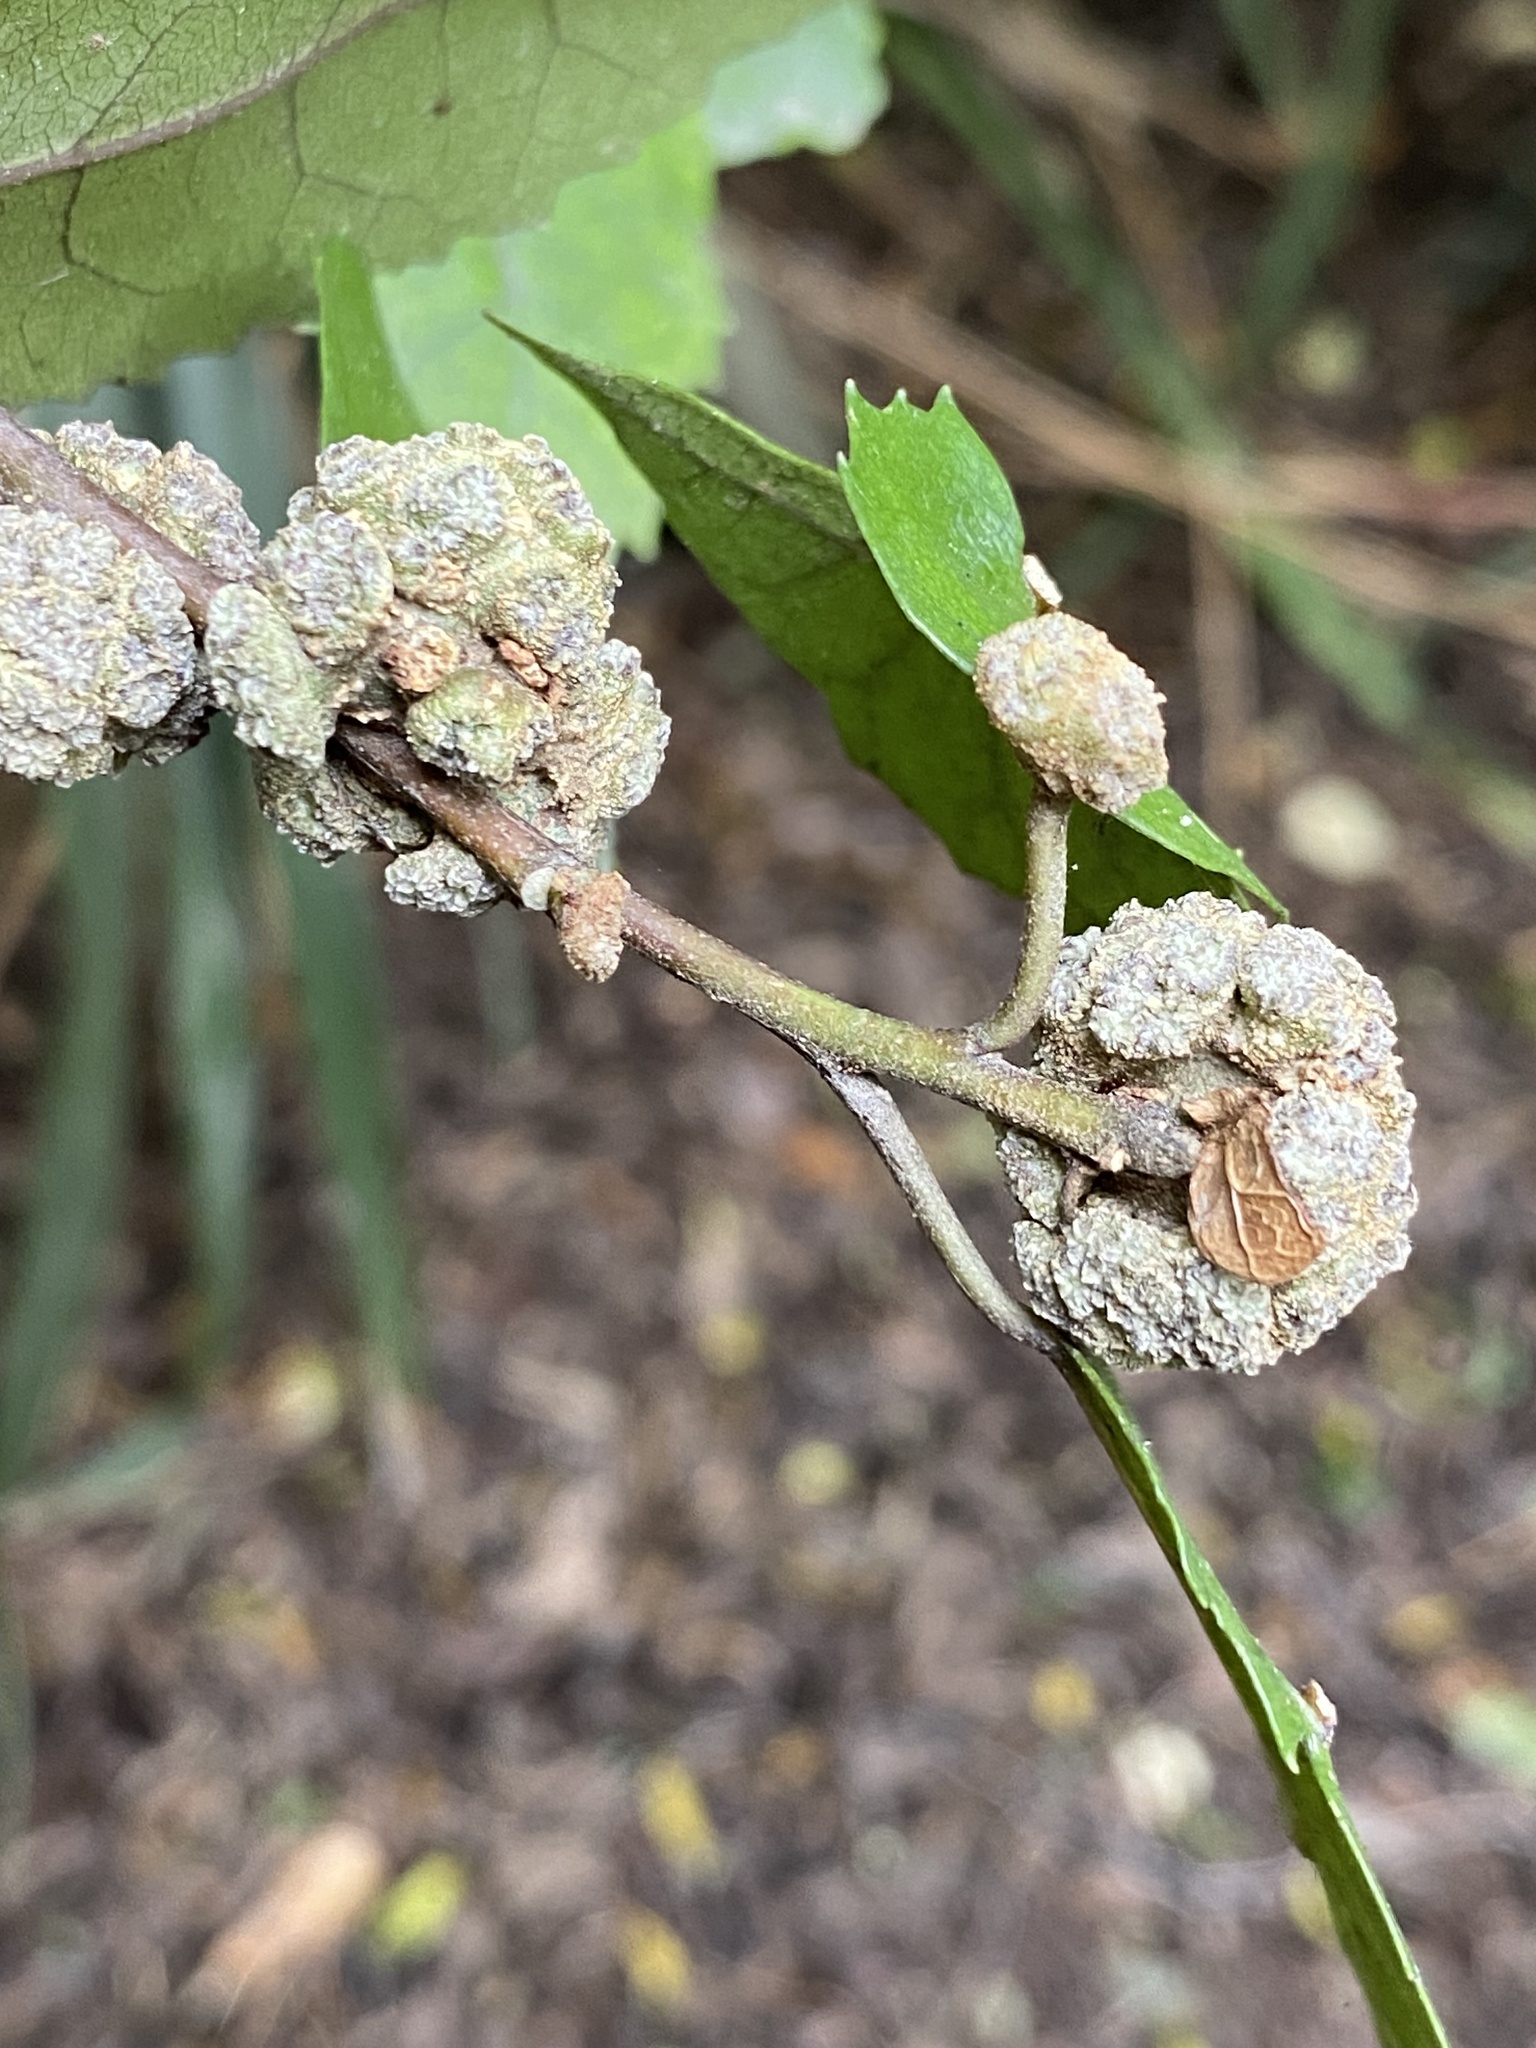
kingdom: Animalia
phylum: Arthropoda
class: Arachnida
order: Trombidiformes
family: Eriophyidae
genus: Eriophyes
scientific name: Eriophyes hoheriae
